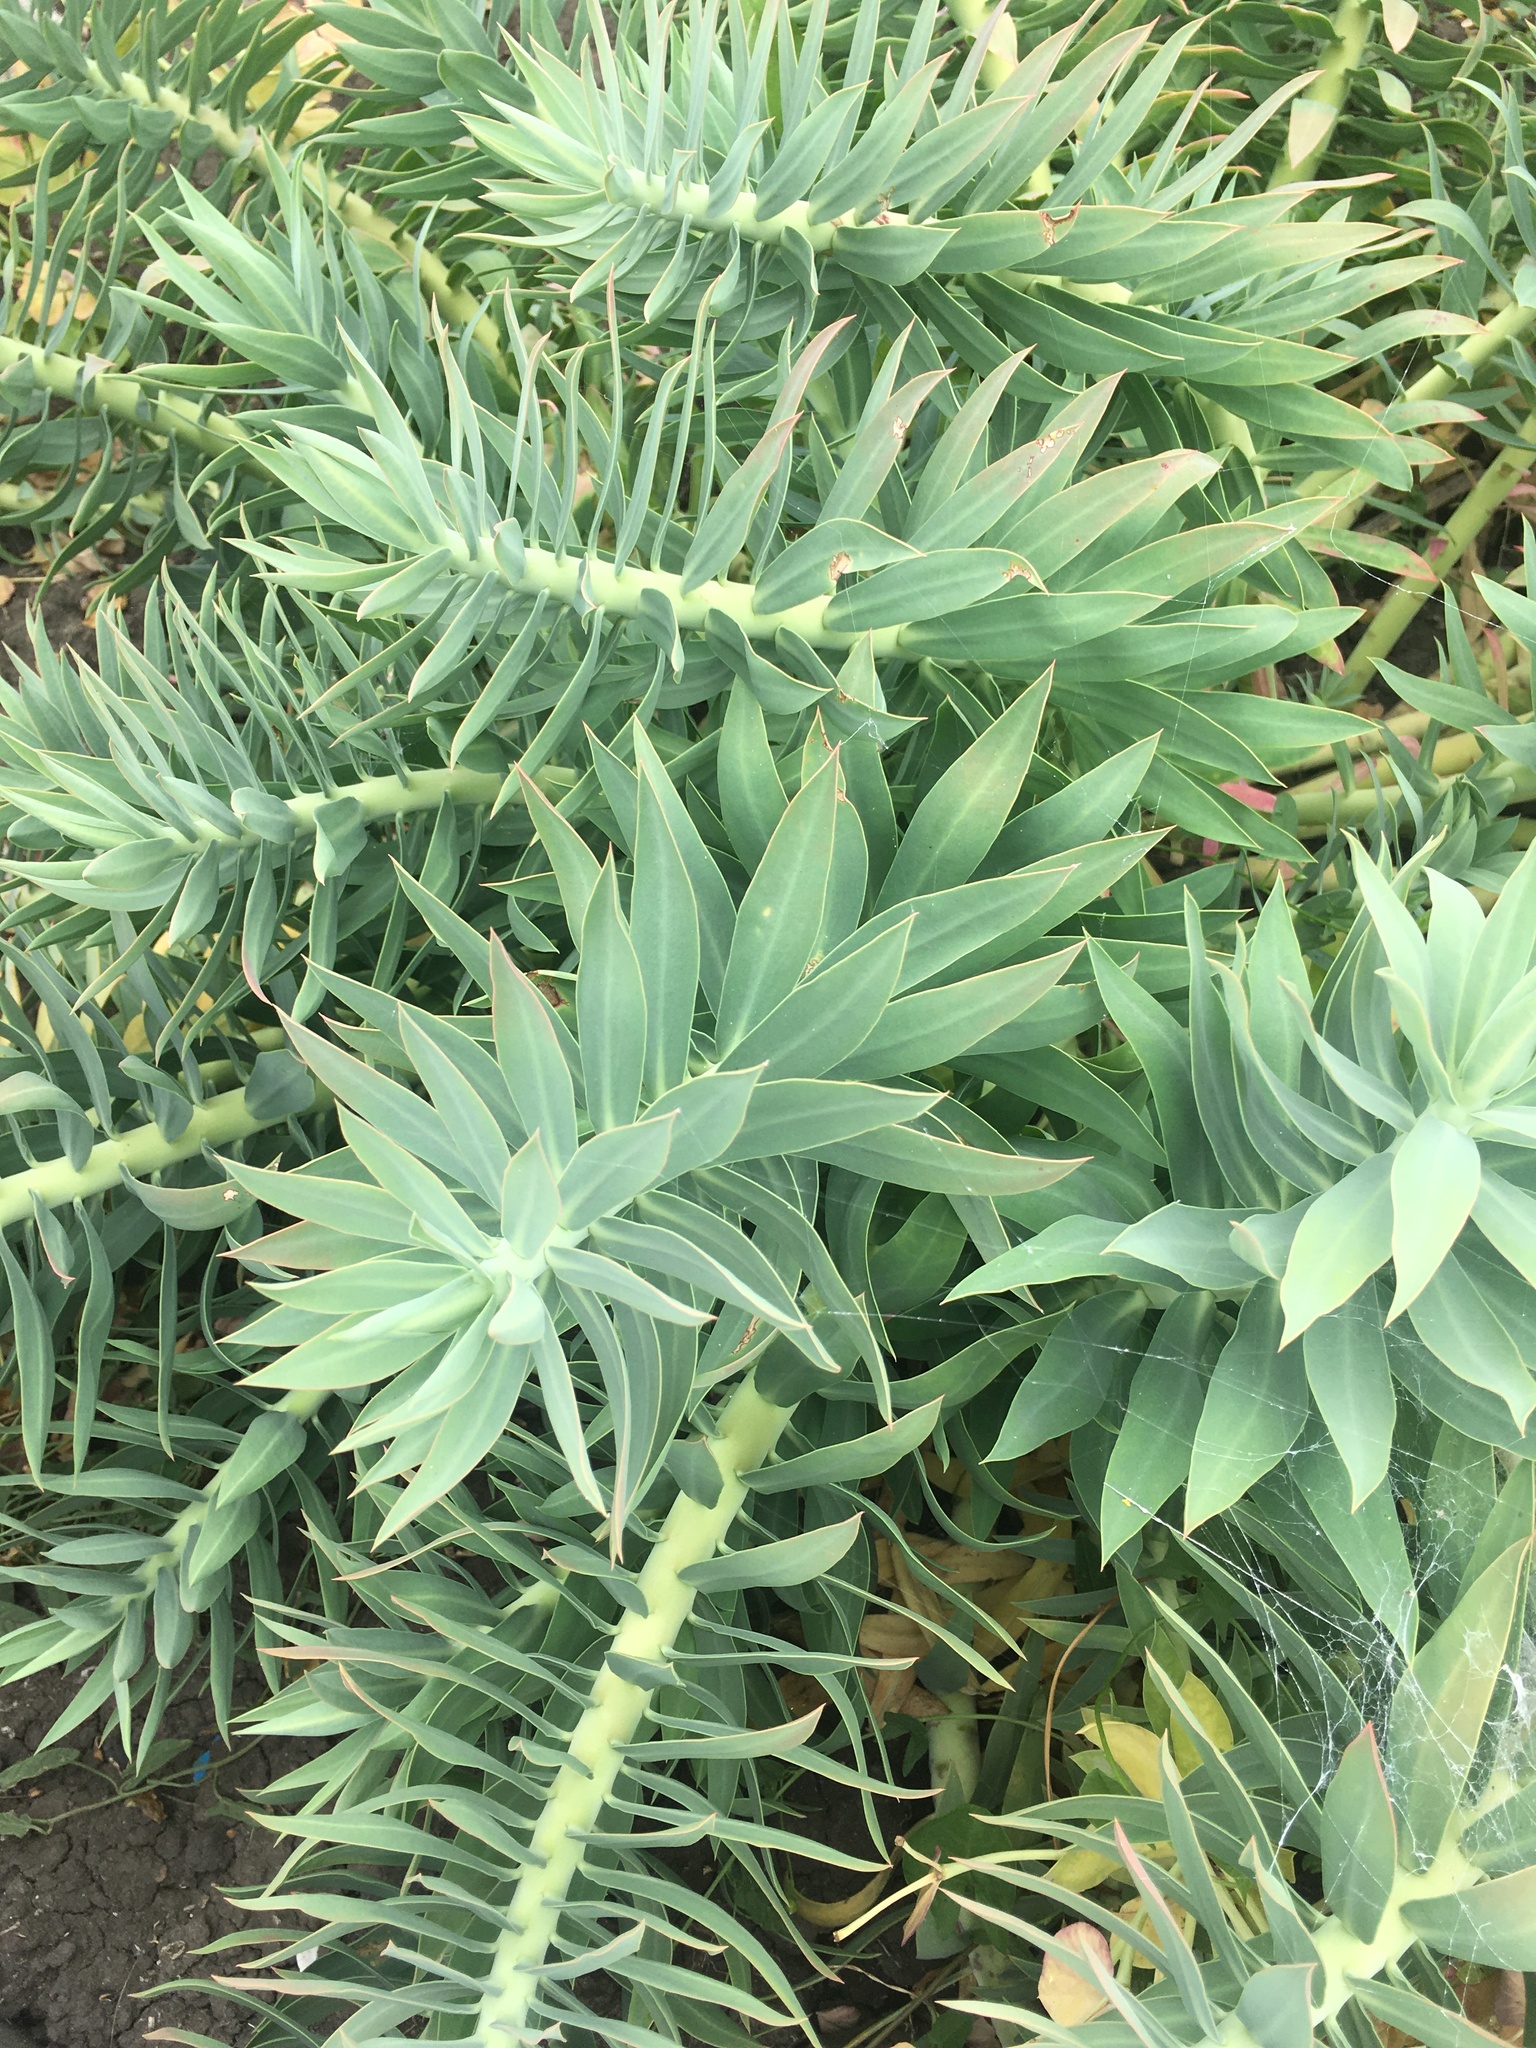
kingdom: Plantae
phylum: Tracheophyta
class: Magnoliopsida
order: Malpighiales
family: Euphorbiaceae
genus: Euphorbia
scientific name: Euphorbia rigida
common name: Upright myrtle spurge
